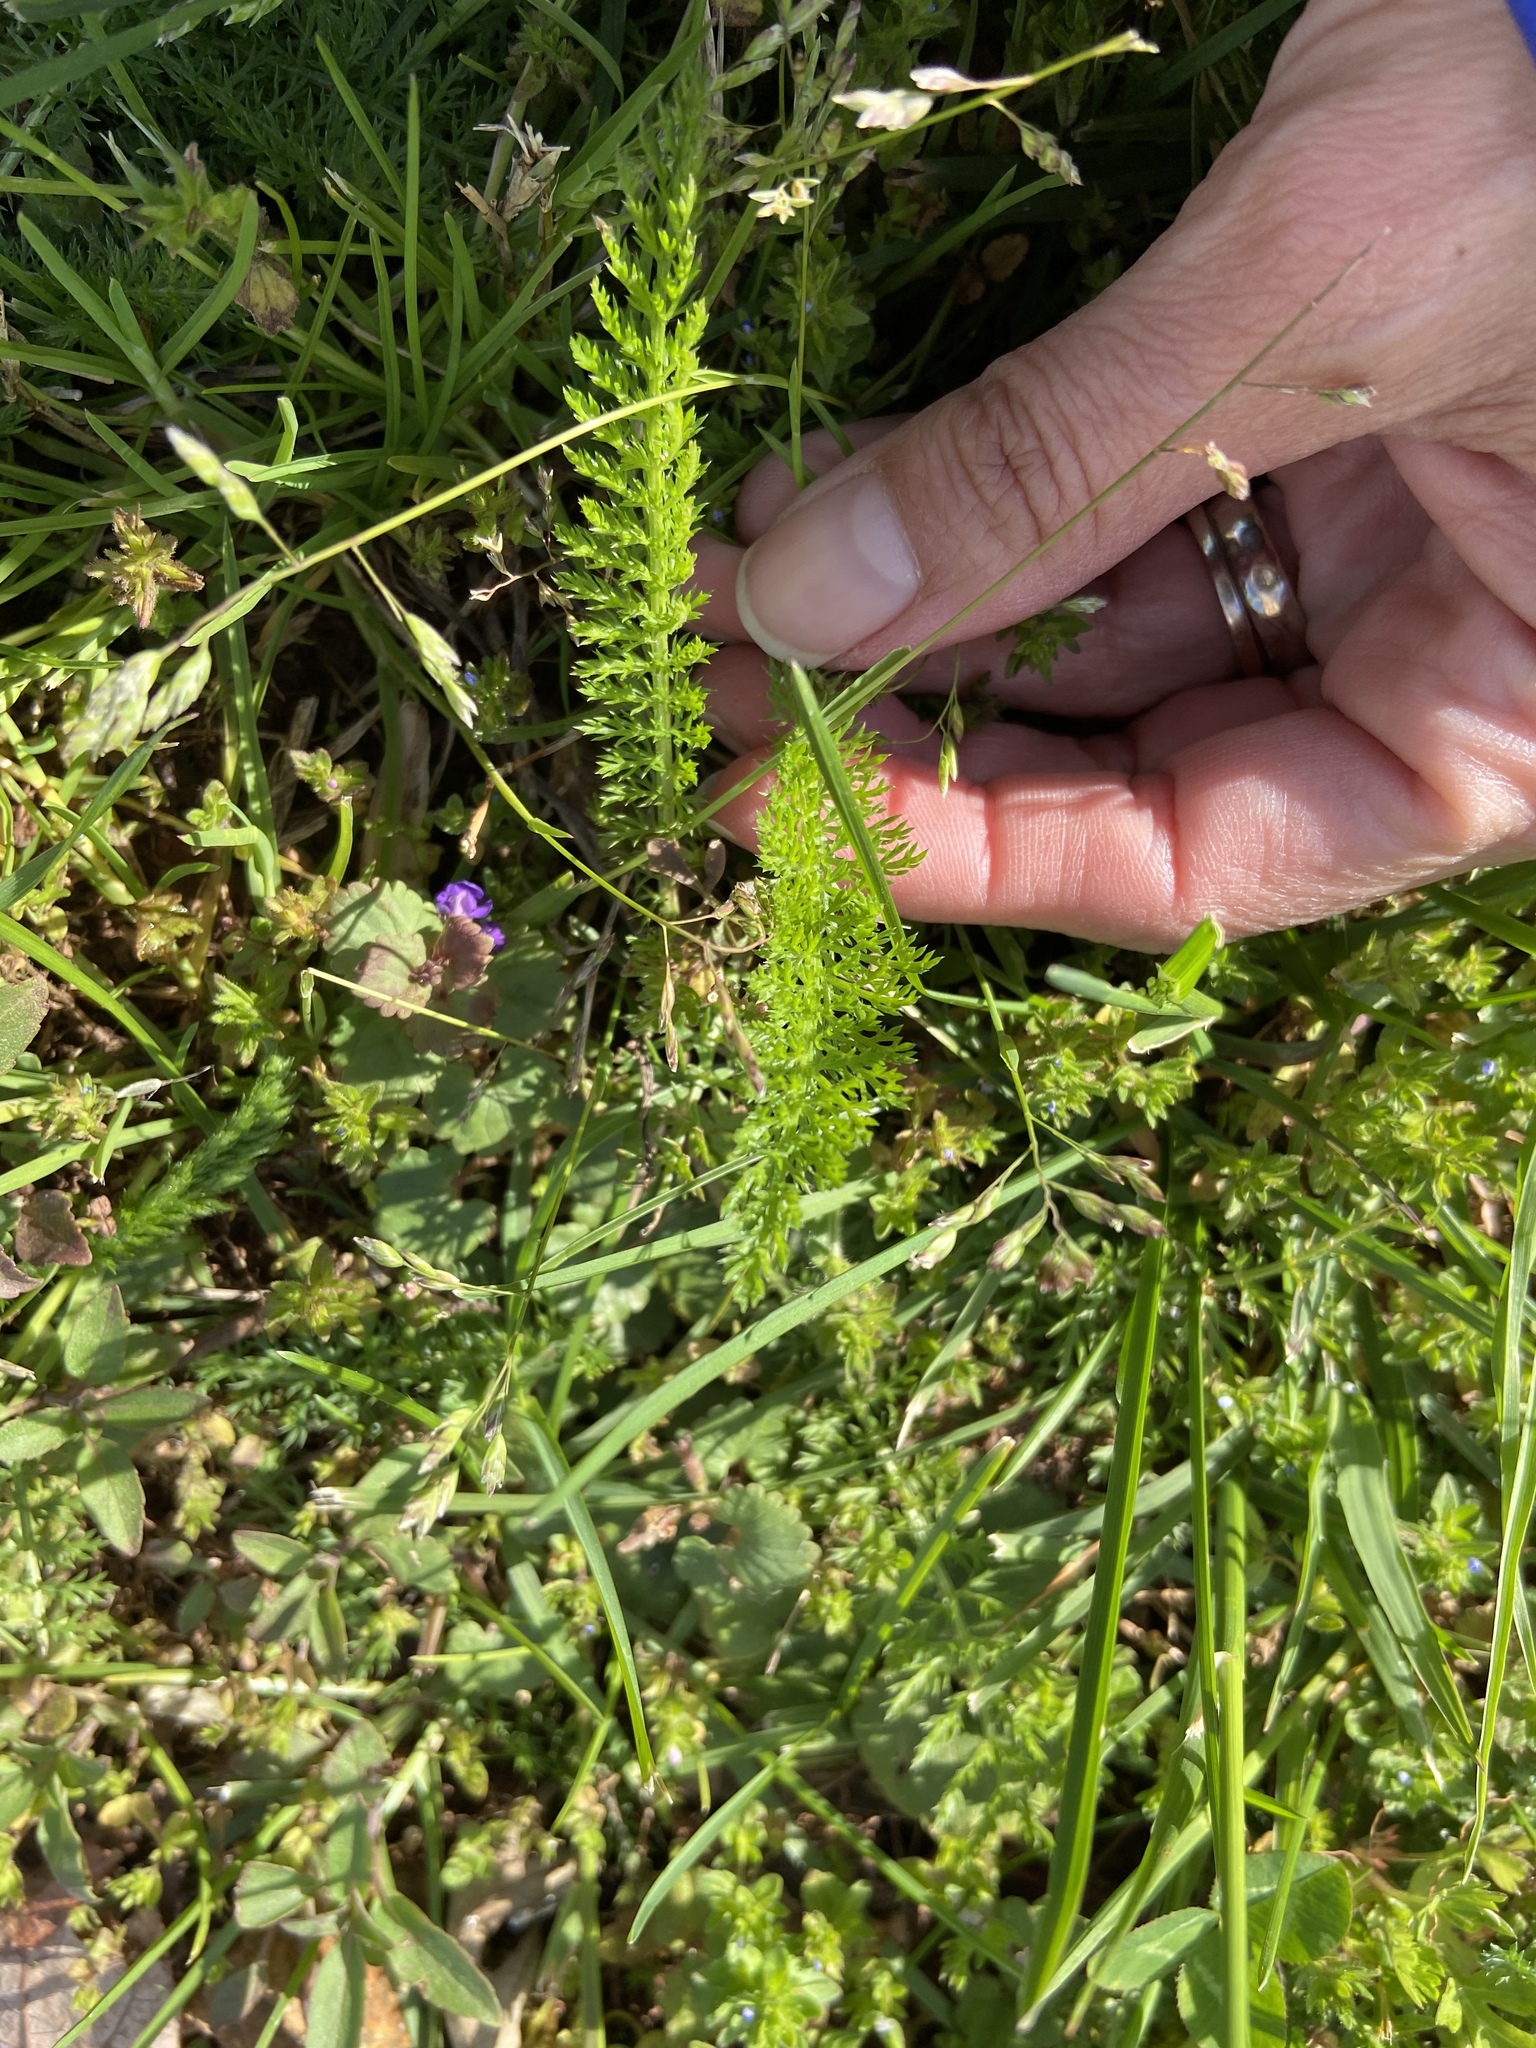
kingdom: Plantae
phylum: Tracheophyta
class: Magnoliopsida
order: Asterales
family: Asteraceae
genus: Achillea
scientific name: Achillea millefolium
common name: Yarrow
